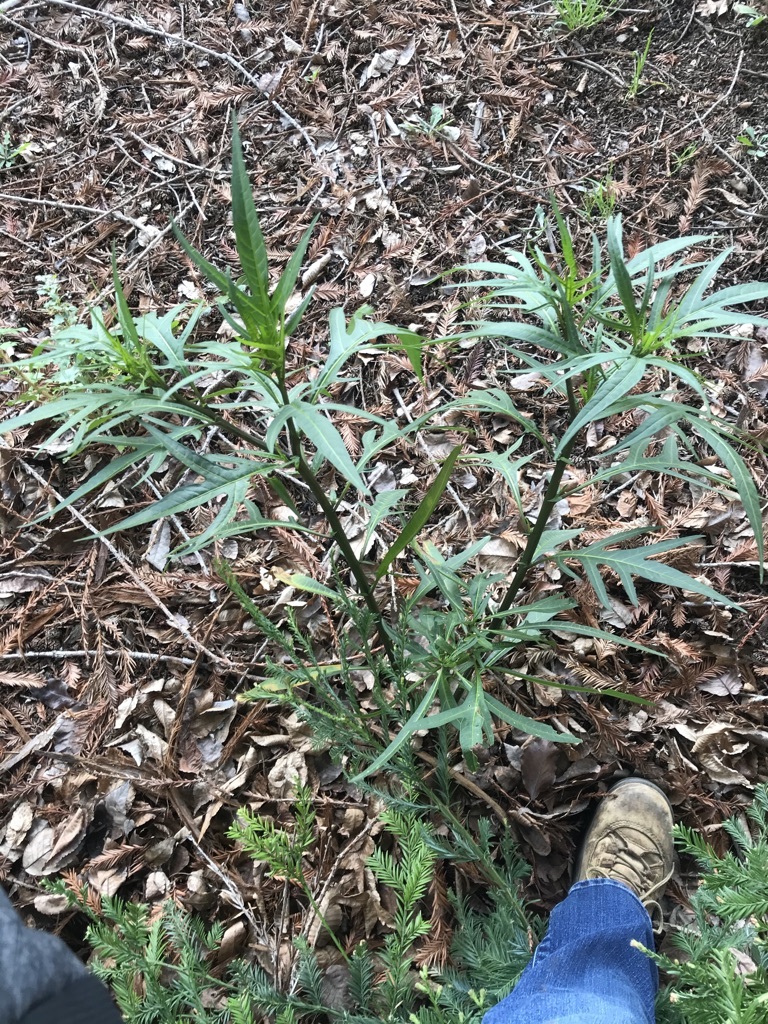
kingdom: Plantae
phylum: Tracheophyta
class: Magnoliopsida
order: Solanales
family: Solanaceae
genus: Solanum
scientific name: Solanum laciniatum
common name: Kangaroo-apple
